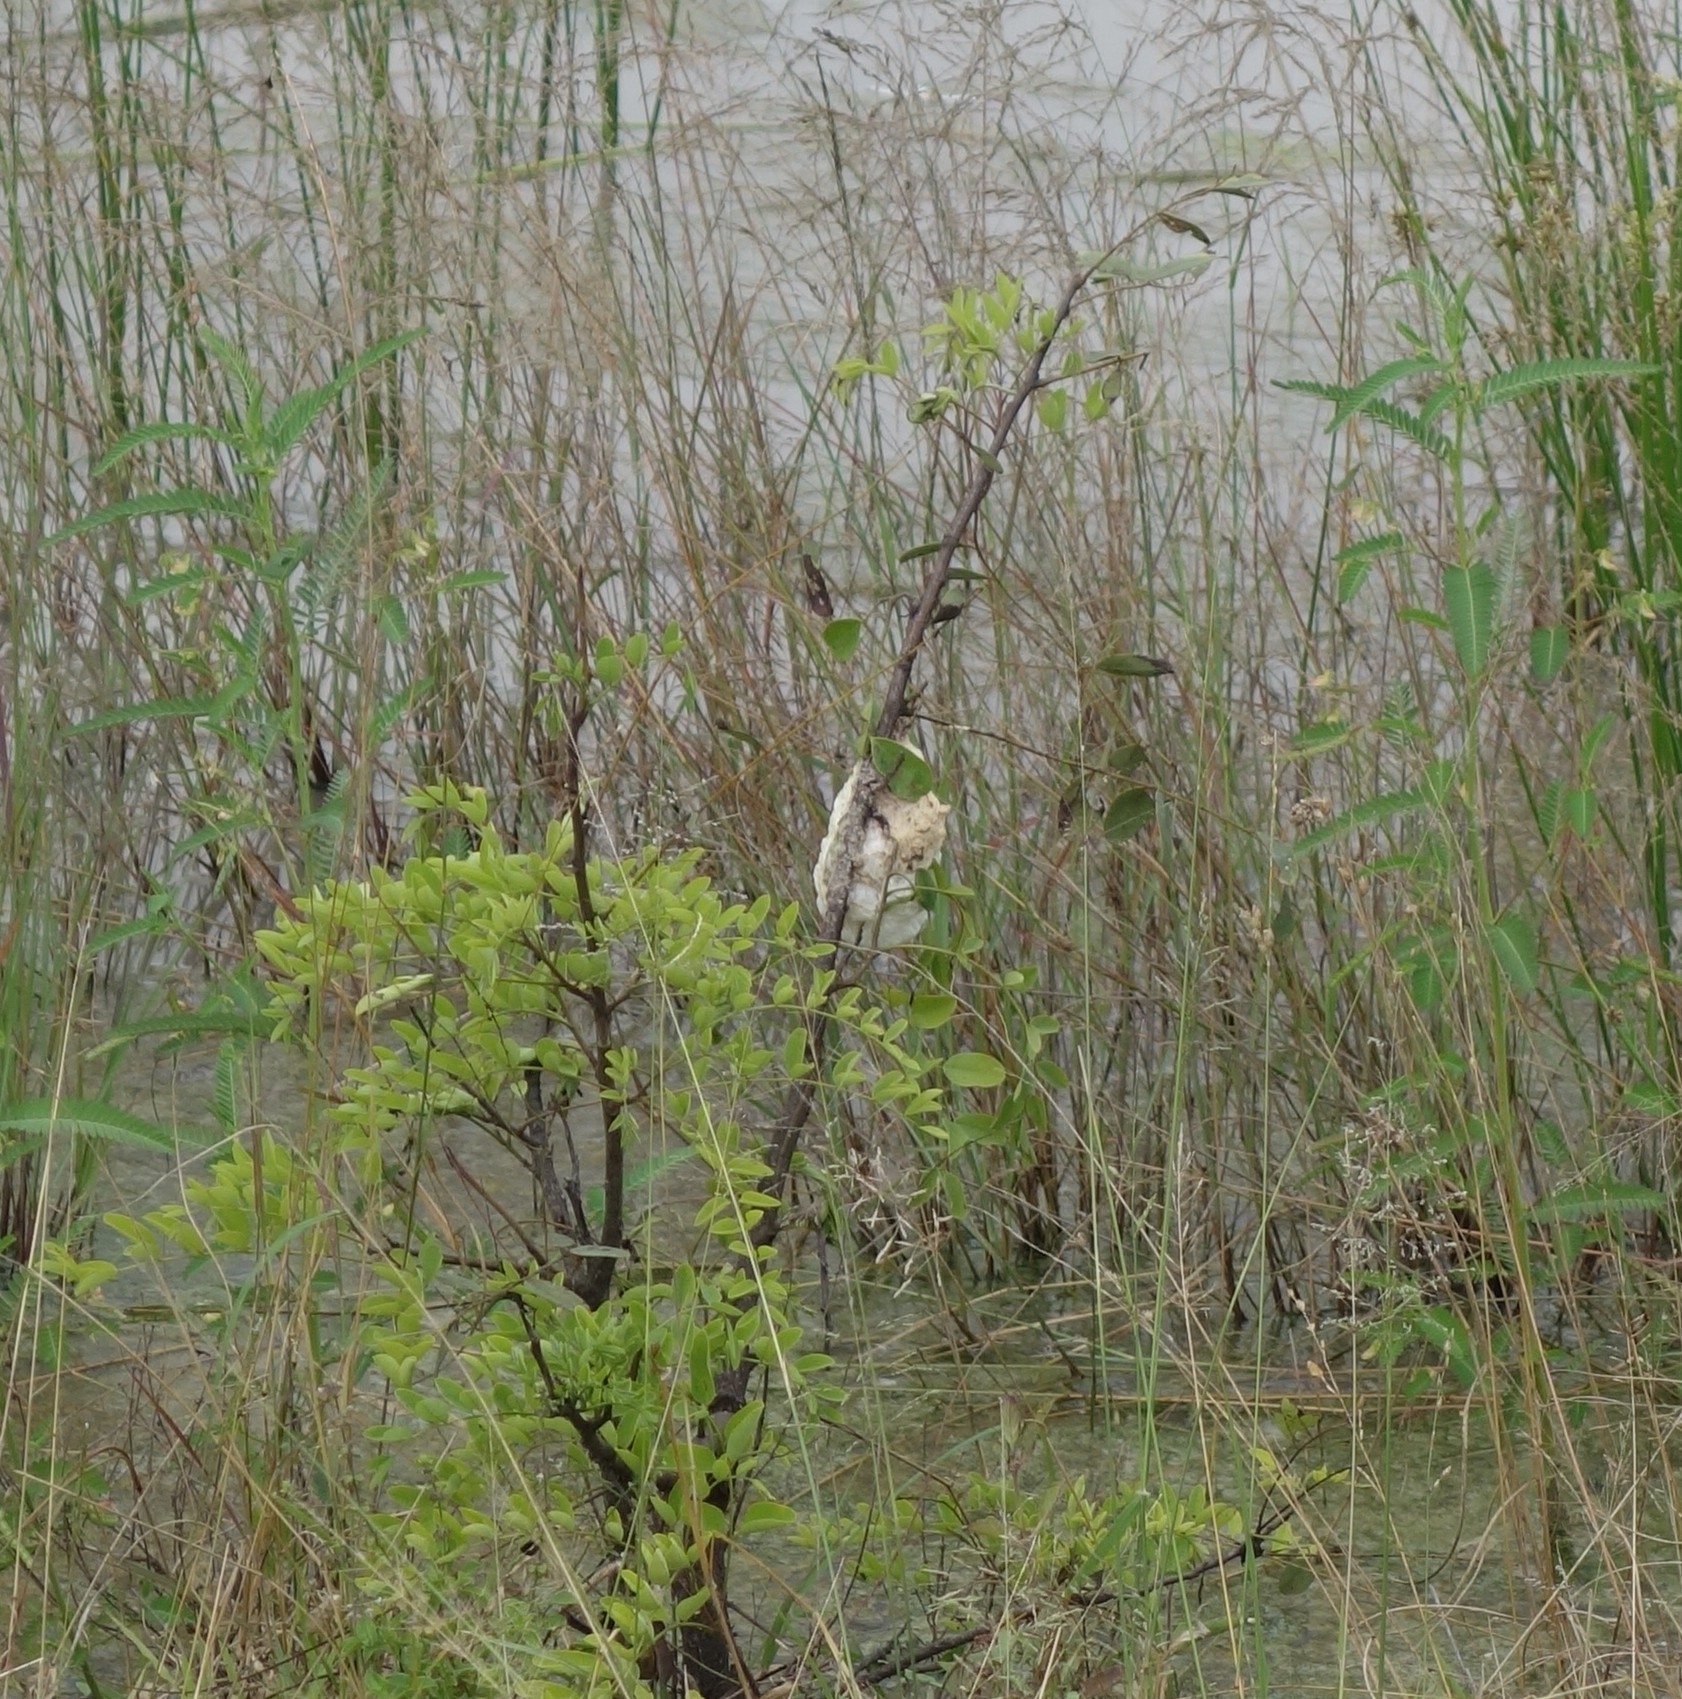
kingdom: Animalia
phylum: Chordata
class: Amphibia
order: Anura
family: Rhacophoridae
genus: Chiromantis
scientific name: Chiromantis xerampelina
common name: African gray treefrog
